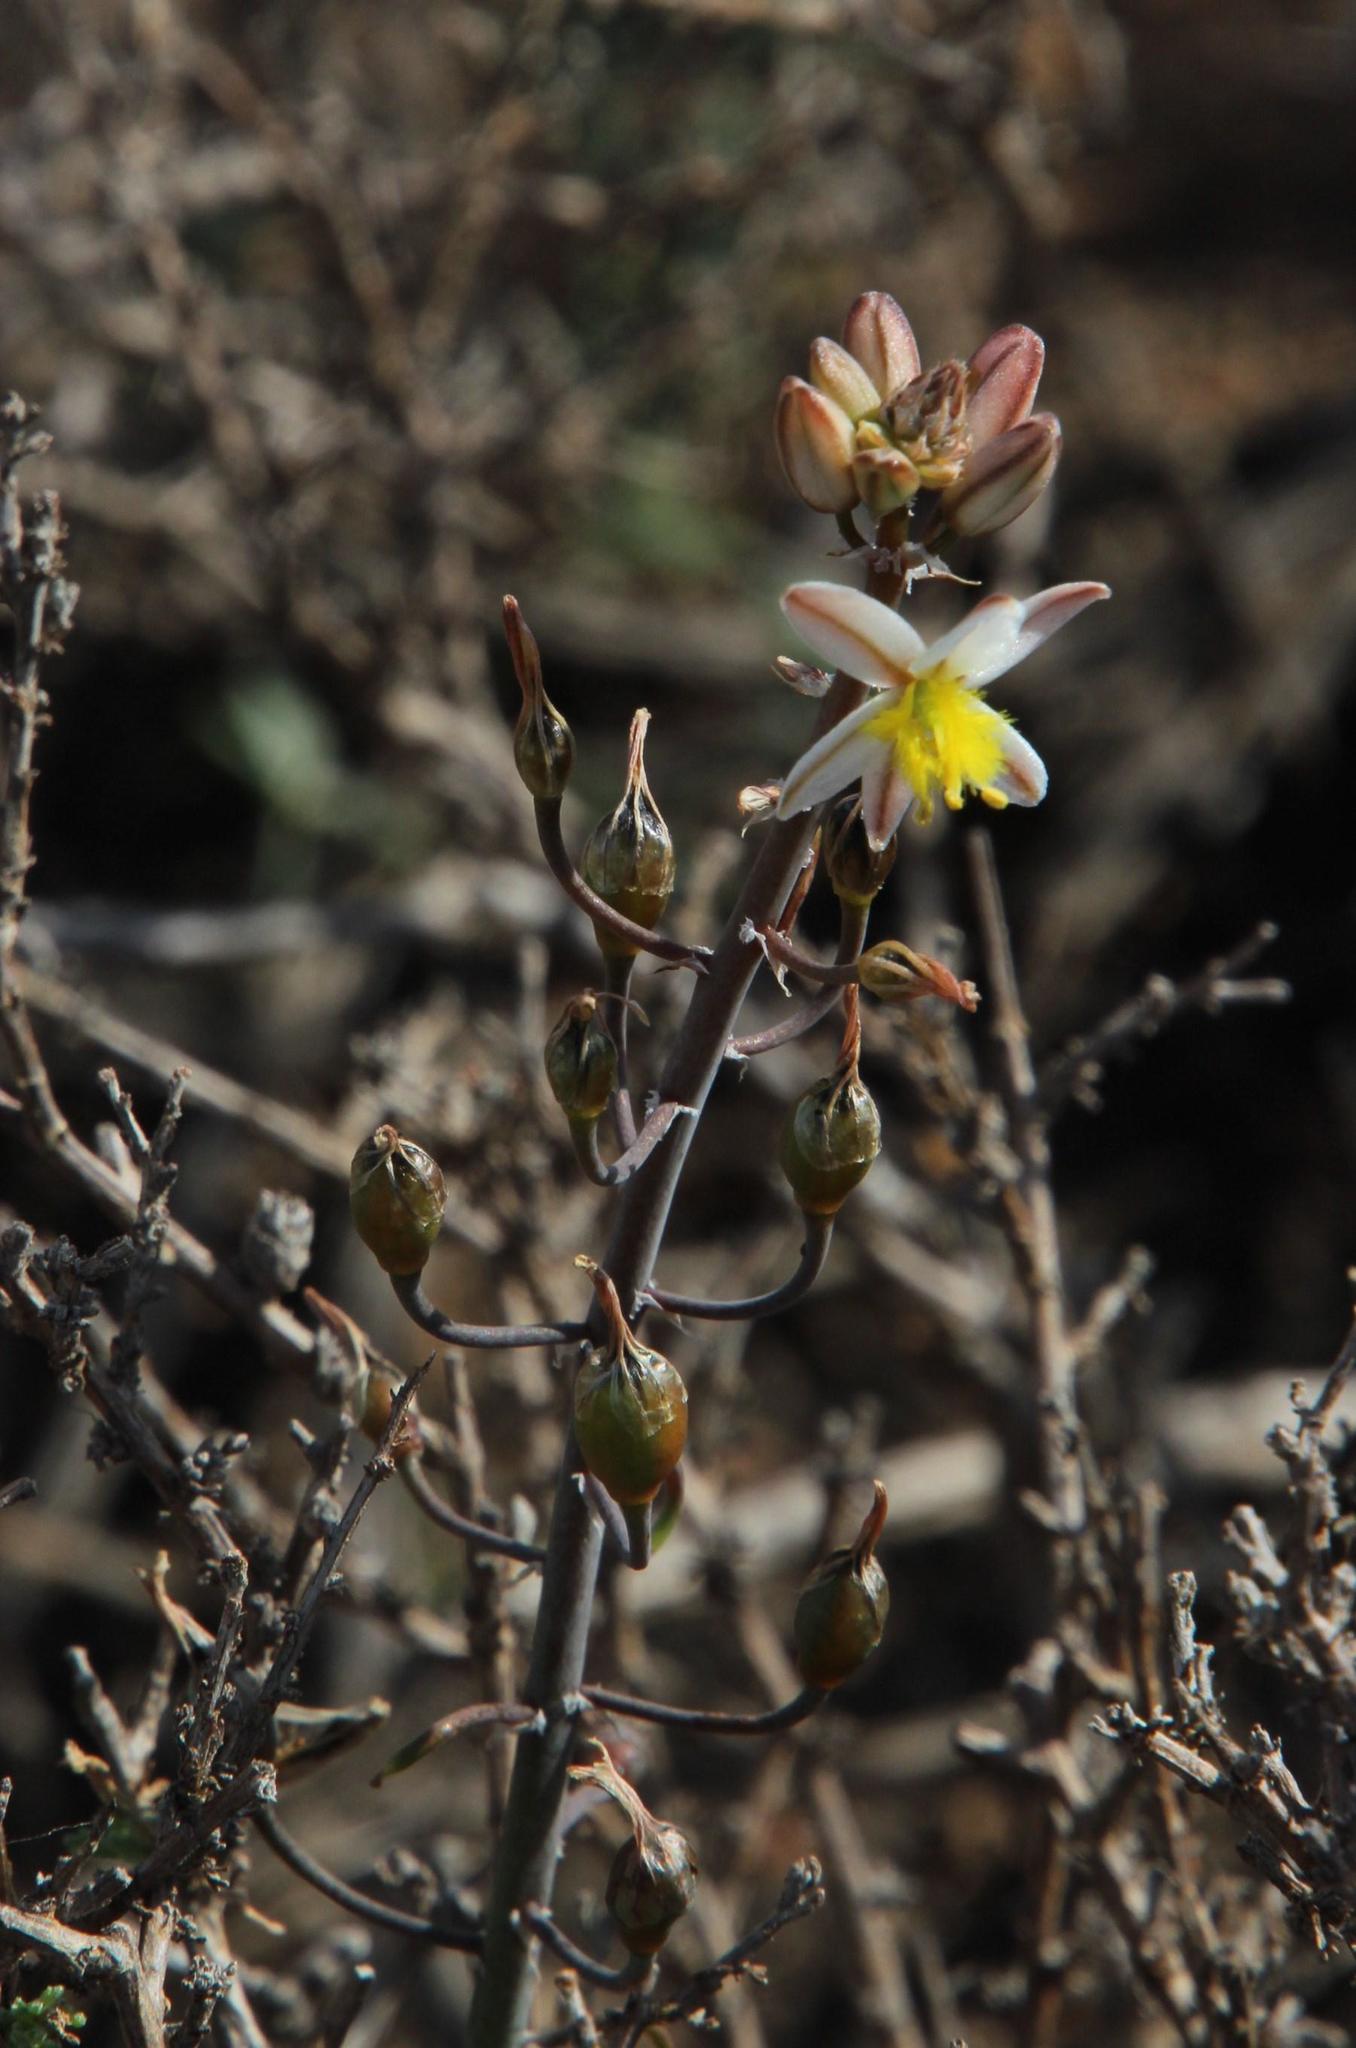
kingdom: Plantae
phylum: Tracheophyta
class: Liliopsida
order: Asparagales
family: Asphodelaceae
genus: Bulbine
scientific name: Bulbine frutescens
